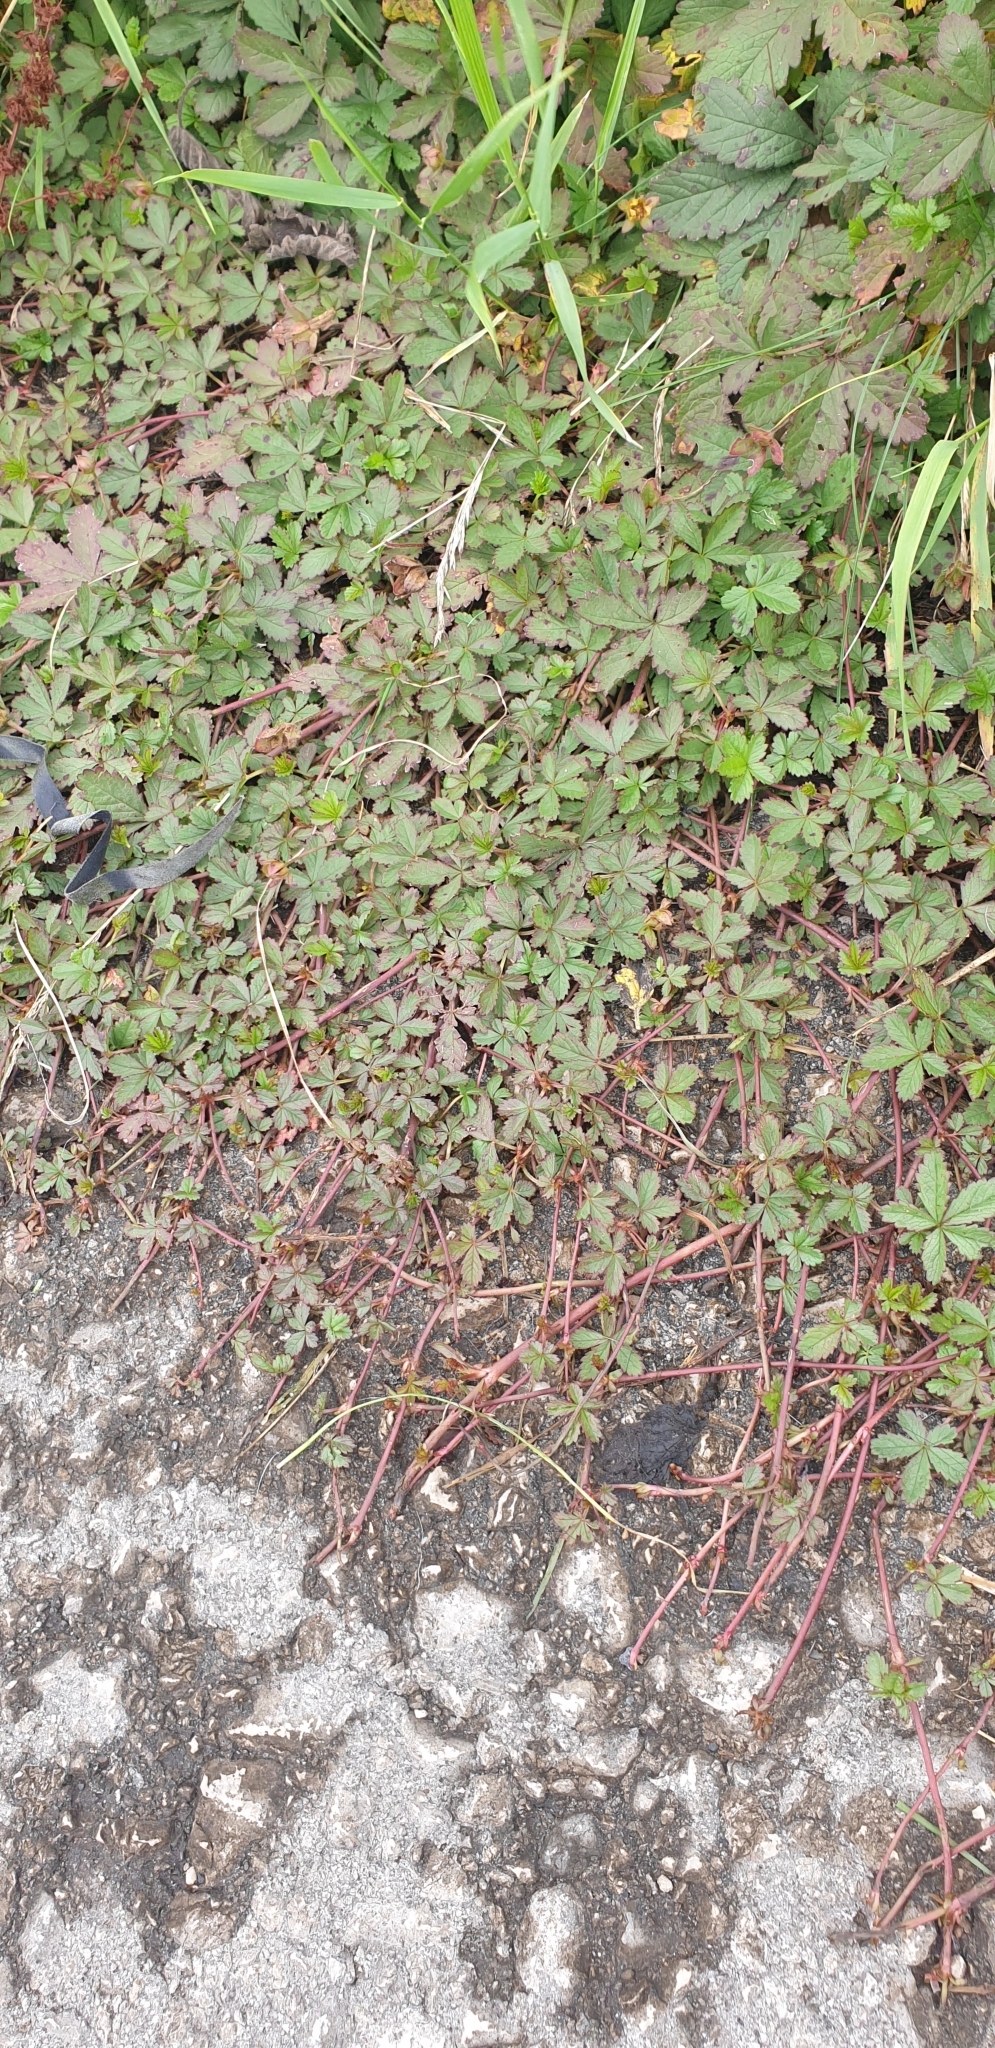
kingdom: Plantae
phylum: Tracheophyta
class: Magnoliopsida
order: Rosales
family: Rosaceae
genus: Potentilla
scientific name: Potentilla reptans
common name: Creeping cinquefoil
